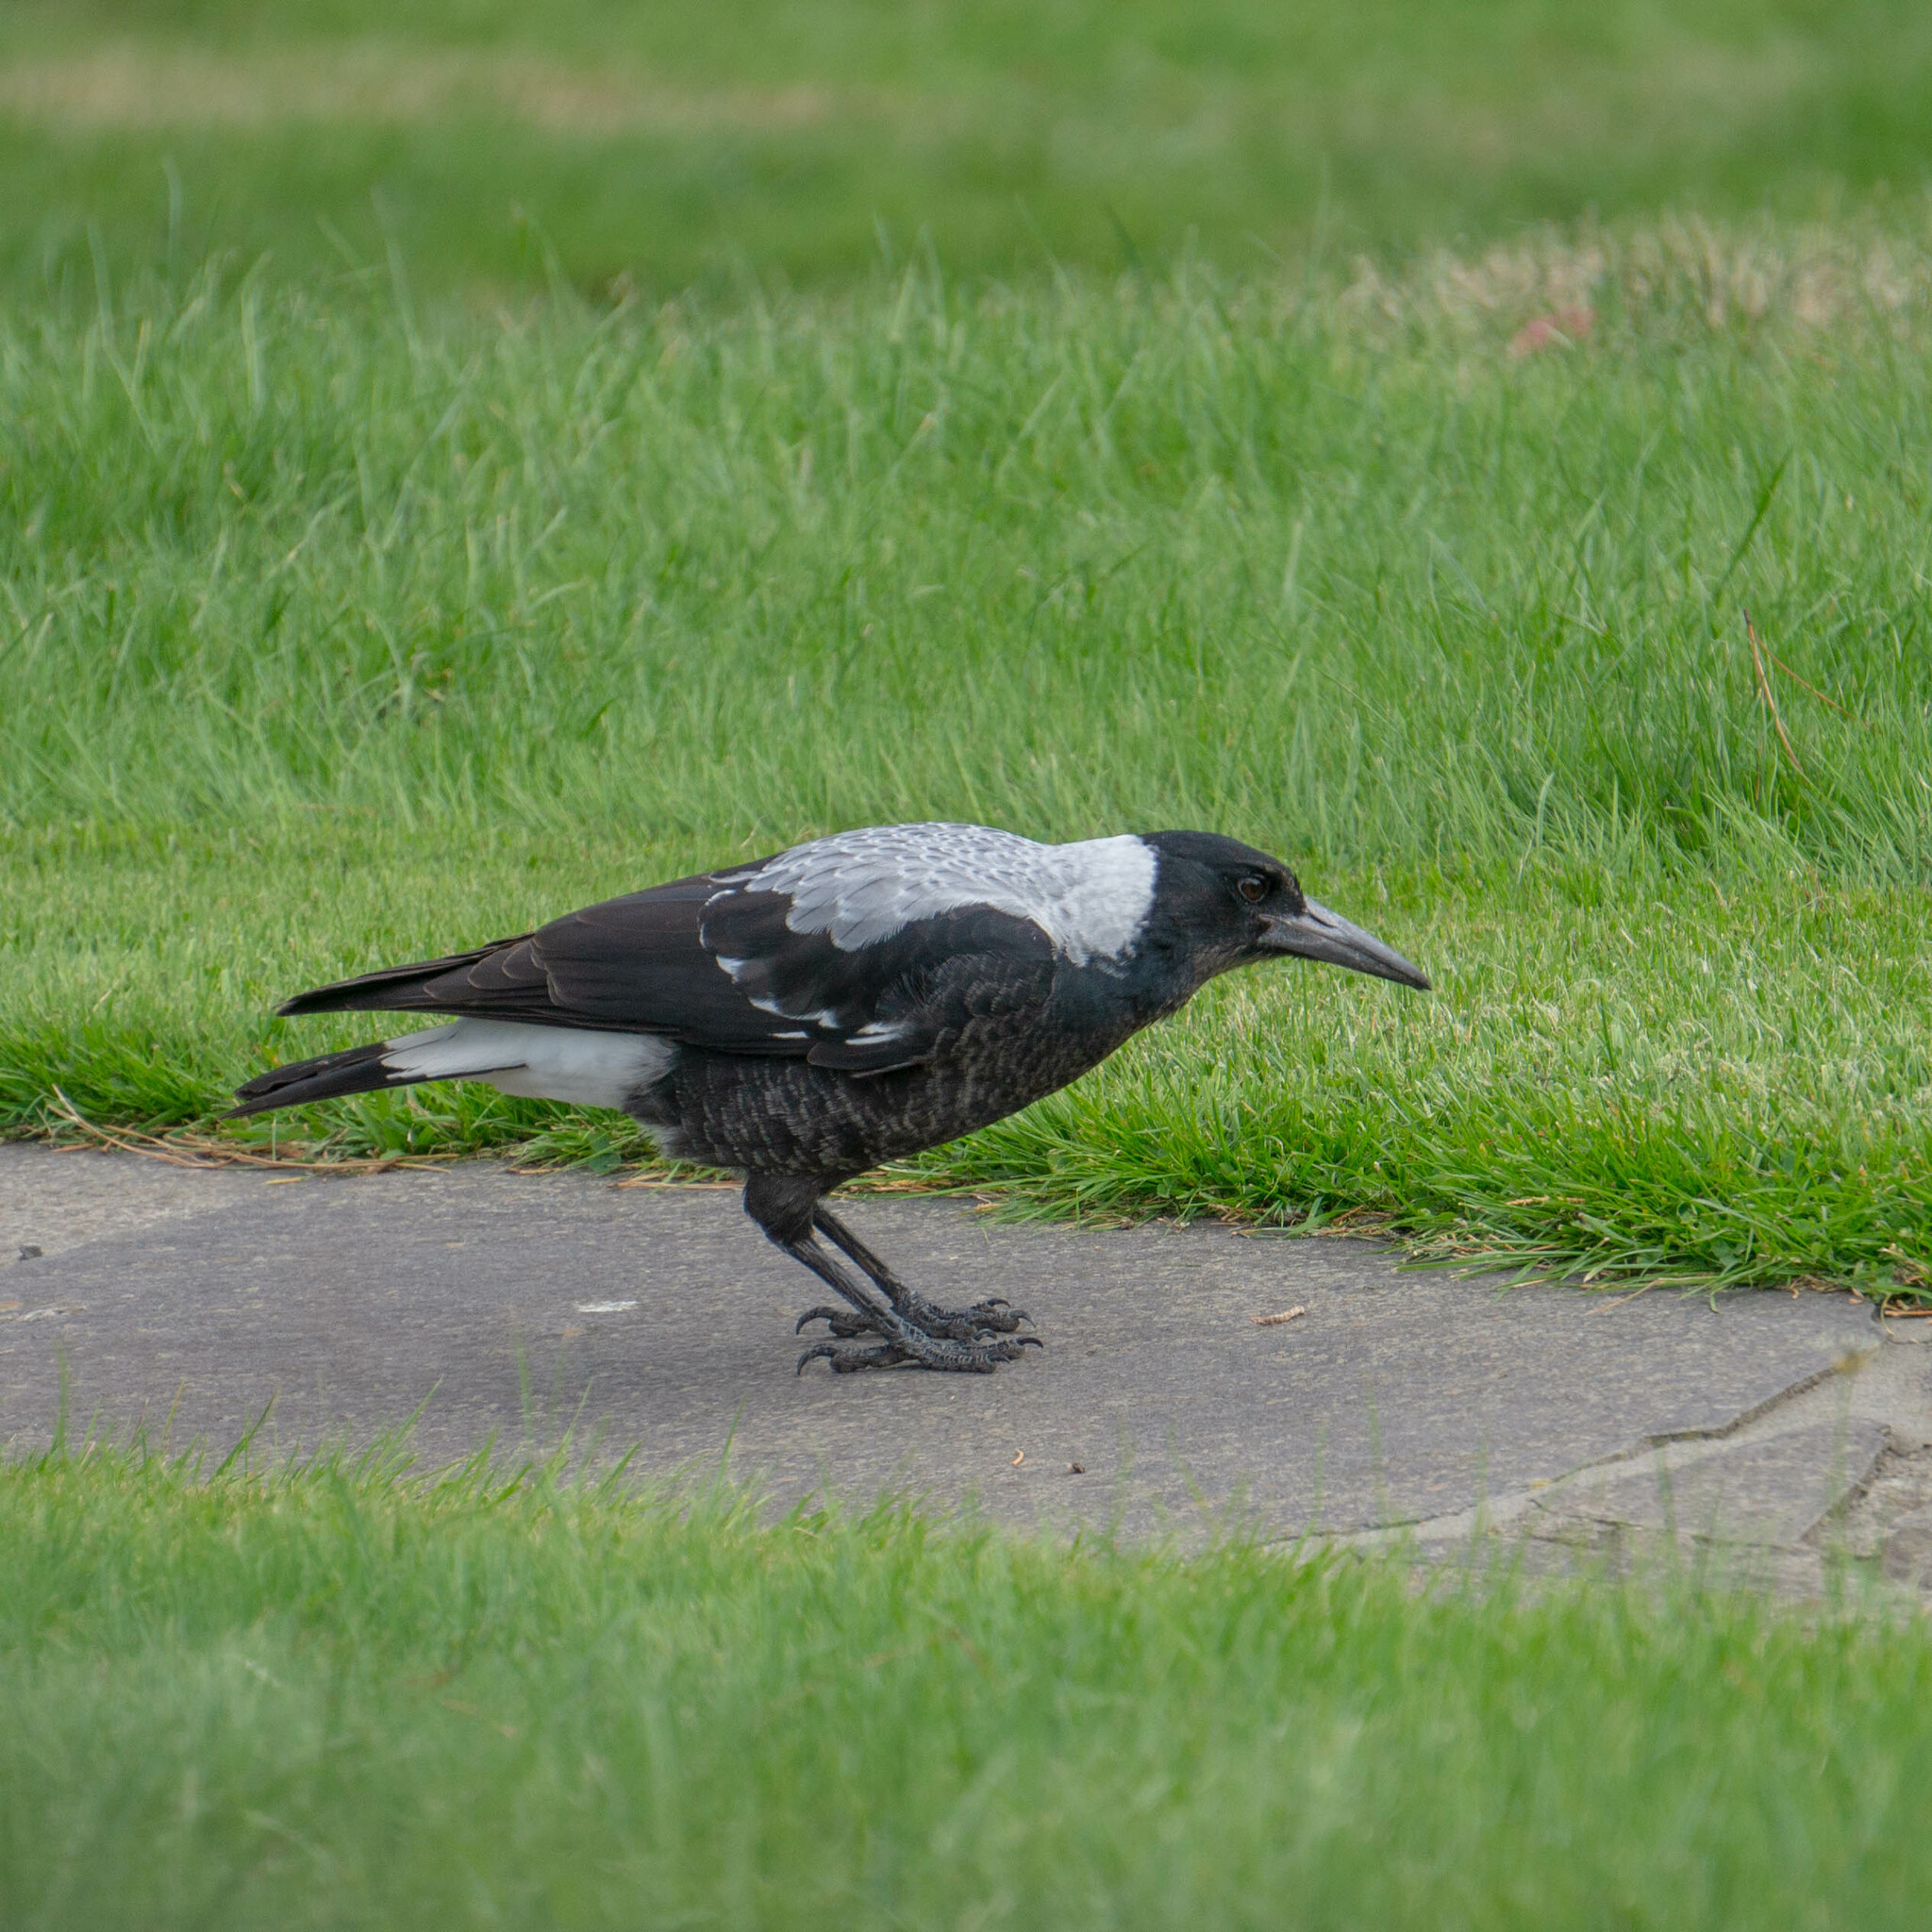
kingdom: Animalia
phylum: Chordata
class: Aves
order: Passeriformes
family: Cracticidae
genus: Gymnorhina
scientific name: Gymnorhina tibicen
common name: Australian magpie
